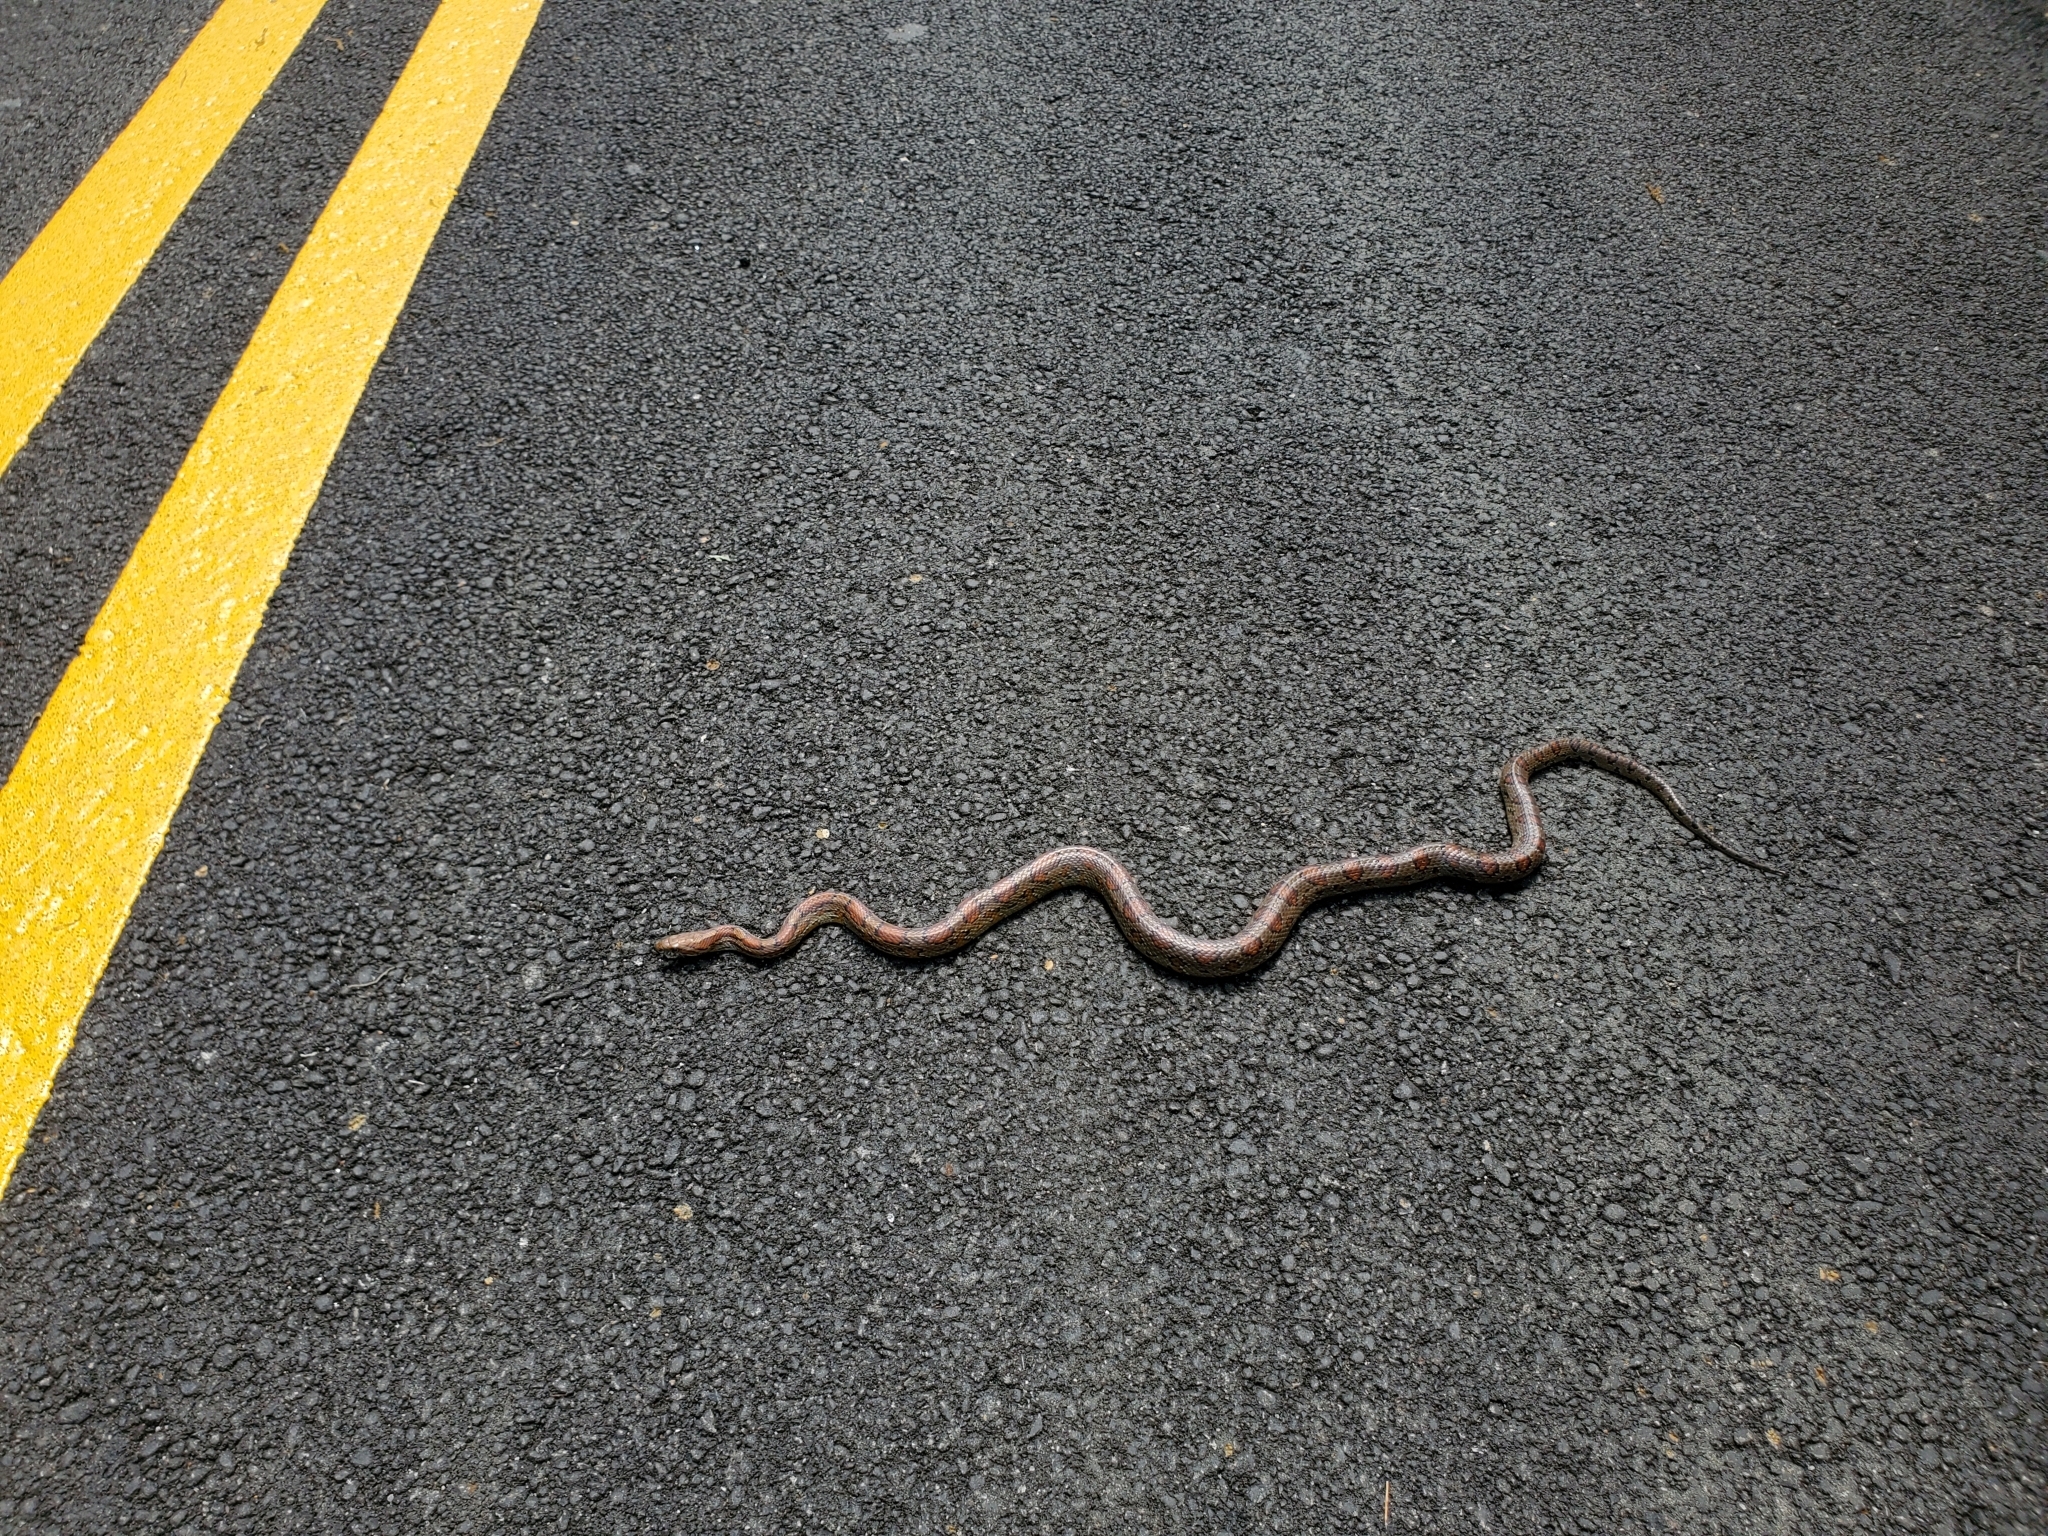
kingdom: Animalia
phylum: Chordata
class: Squamata
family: Colubridae
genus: Pantherophis
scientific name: Pantherophis guttatus
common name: Red cornsnake
